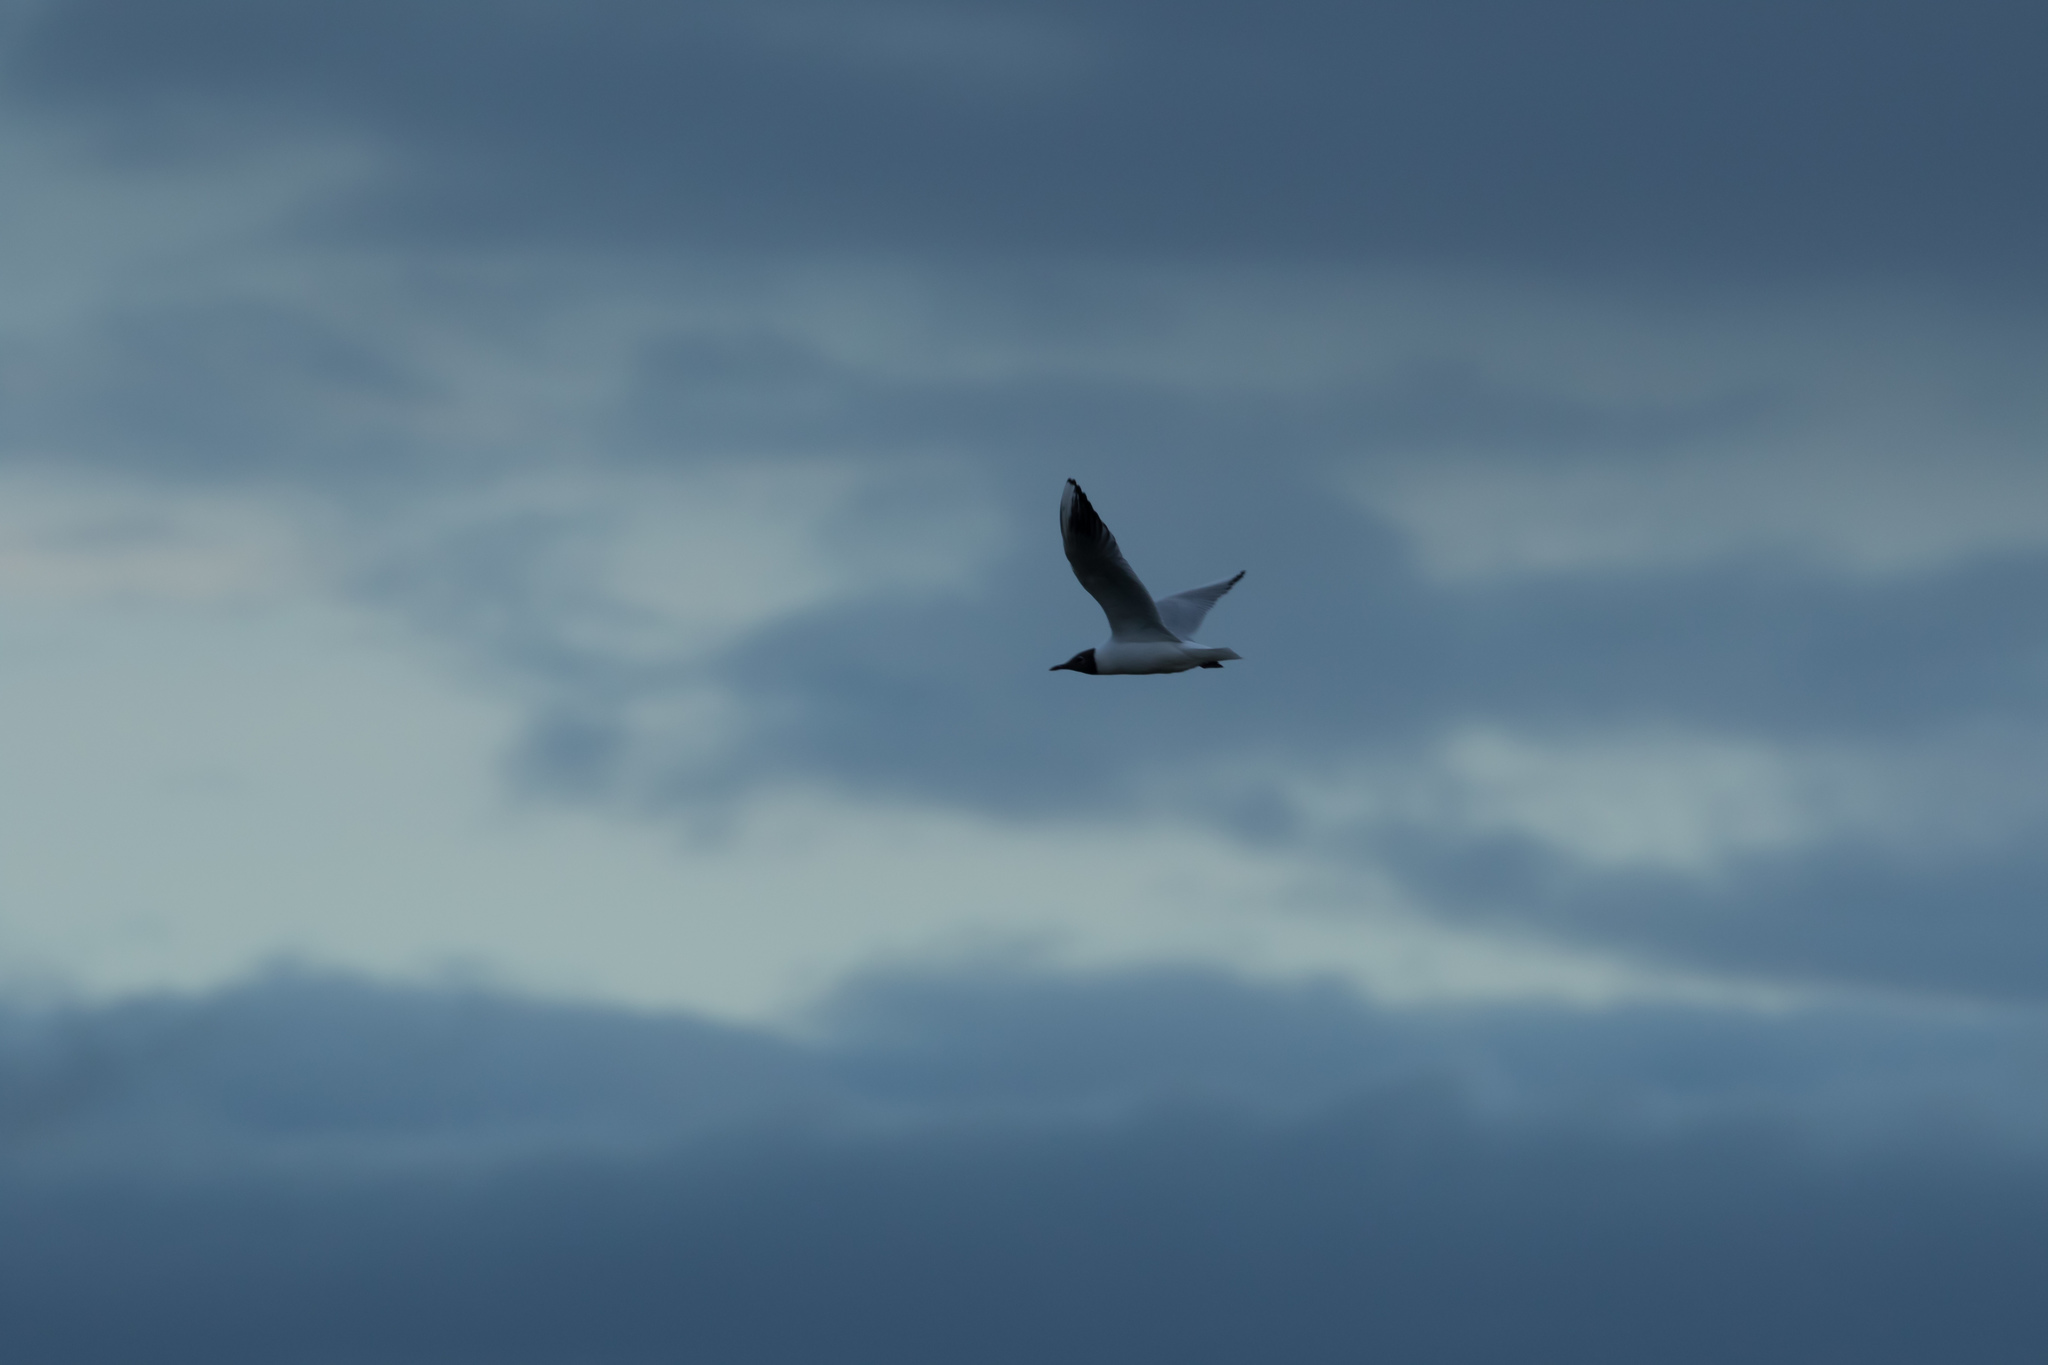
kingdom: Animalia
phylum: Chordata
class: Aves
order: Charadriiformes
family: Laridae
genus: Chroicocephalus
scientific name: Chroicocephalus ridibundus
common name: Black-headed gull
